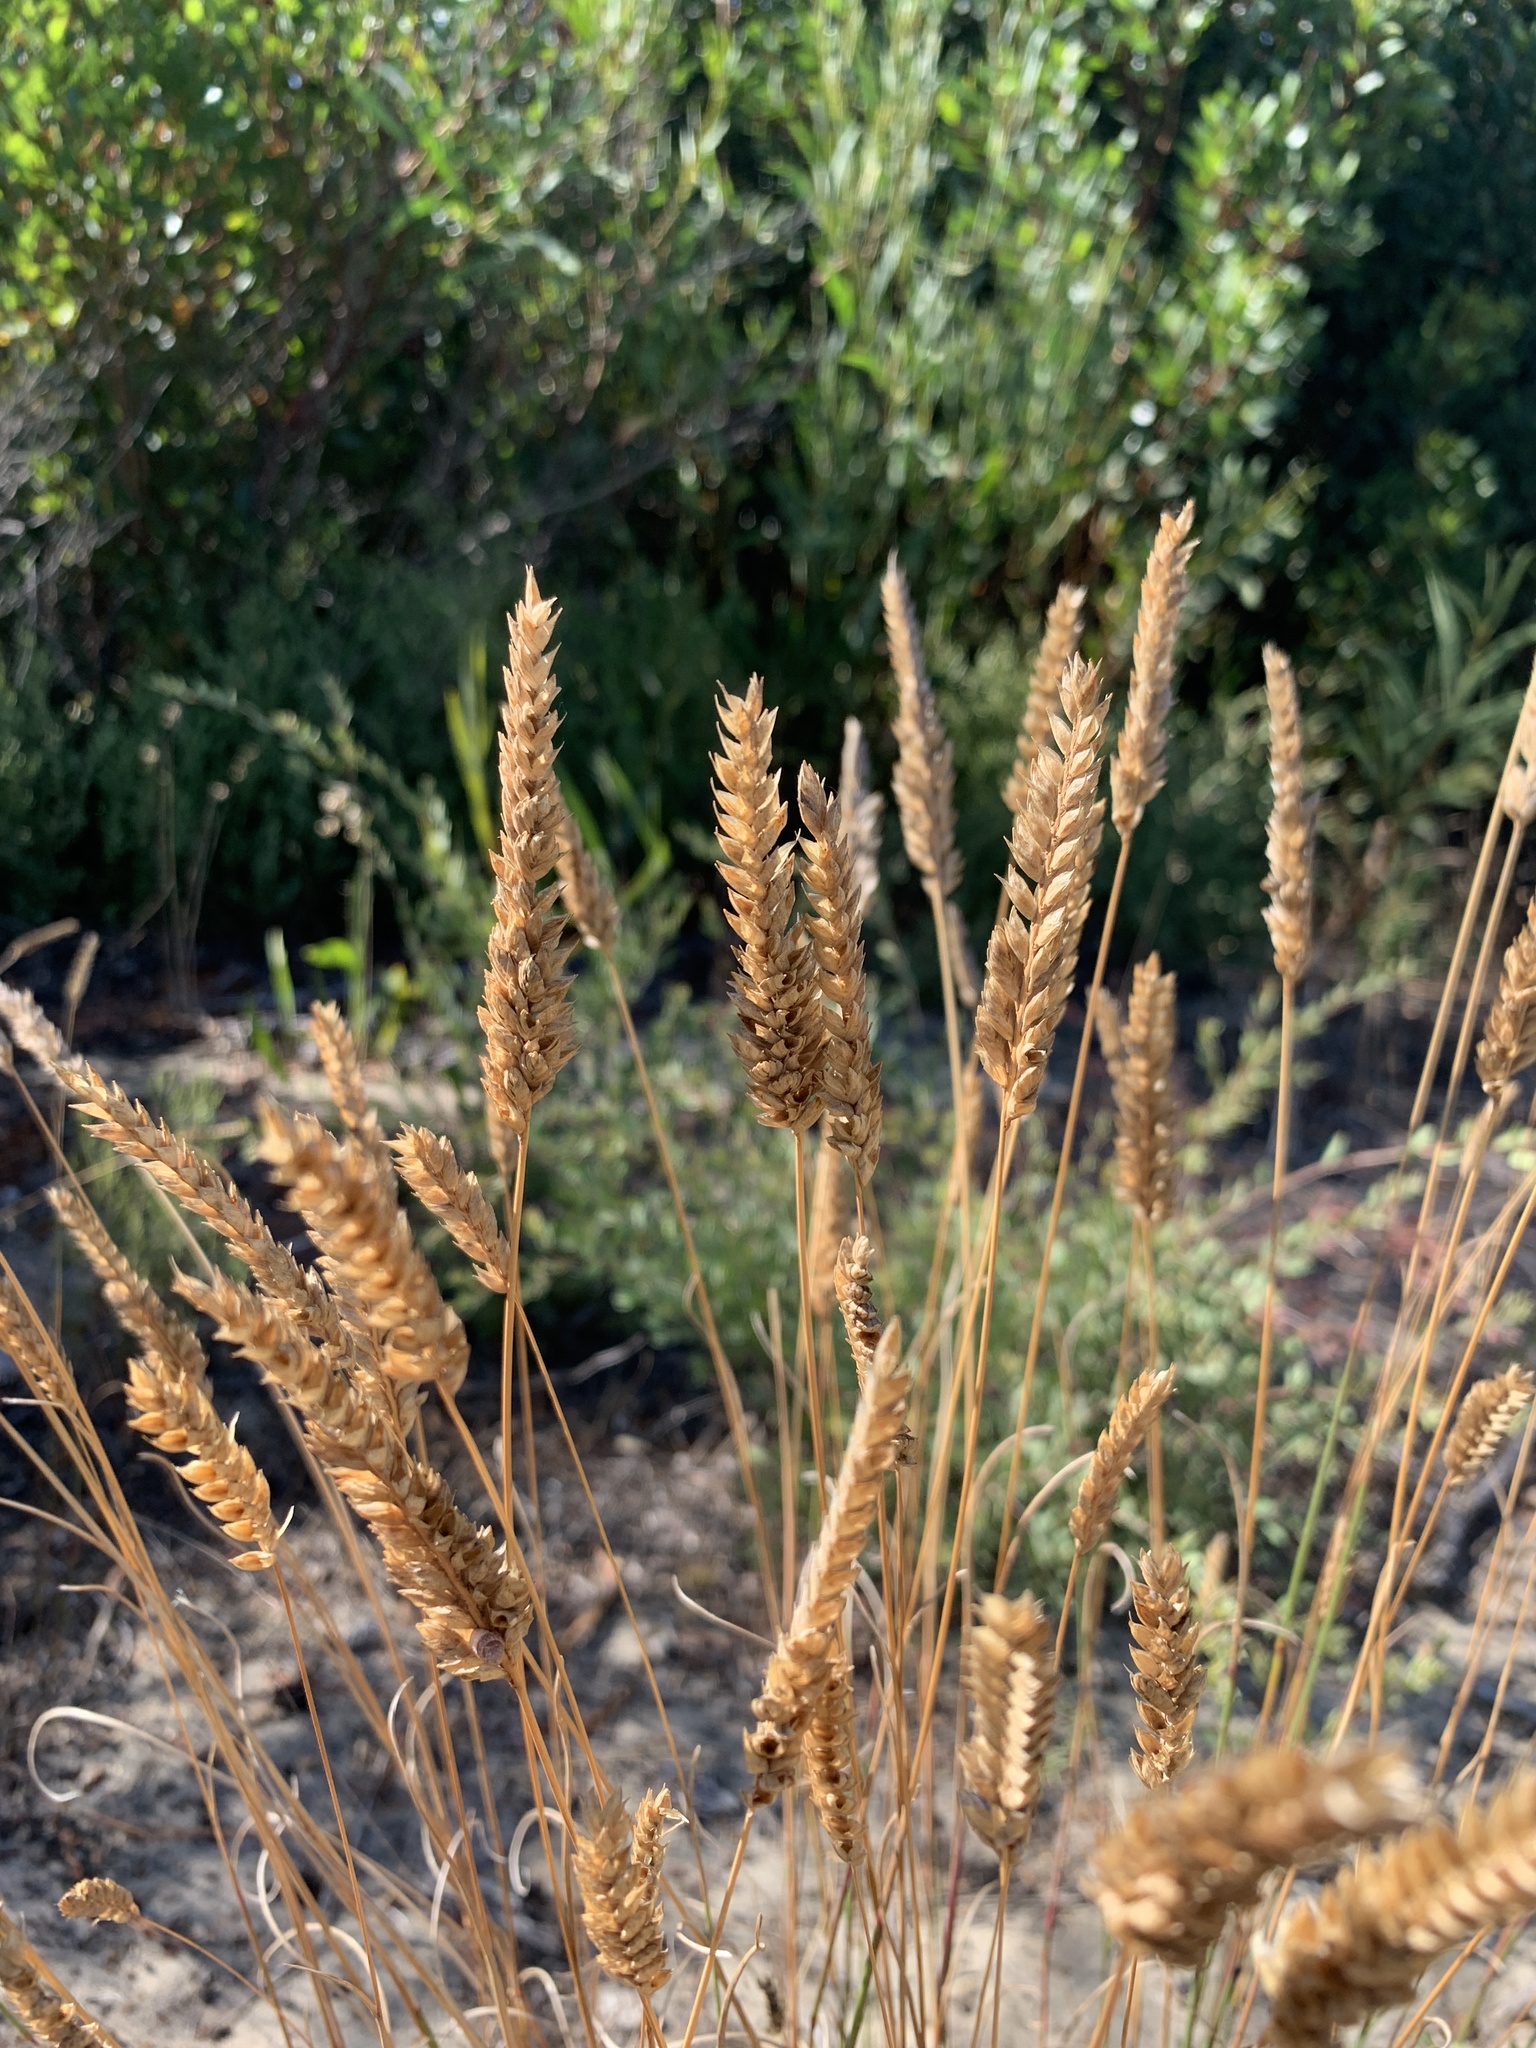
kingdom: Plantae
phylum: Tracheophyta
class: Liliopsida
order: Poales
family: Poaceae
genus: Tribolium
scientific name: Tribolium uniolae
